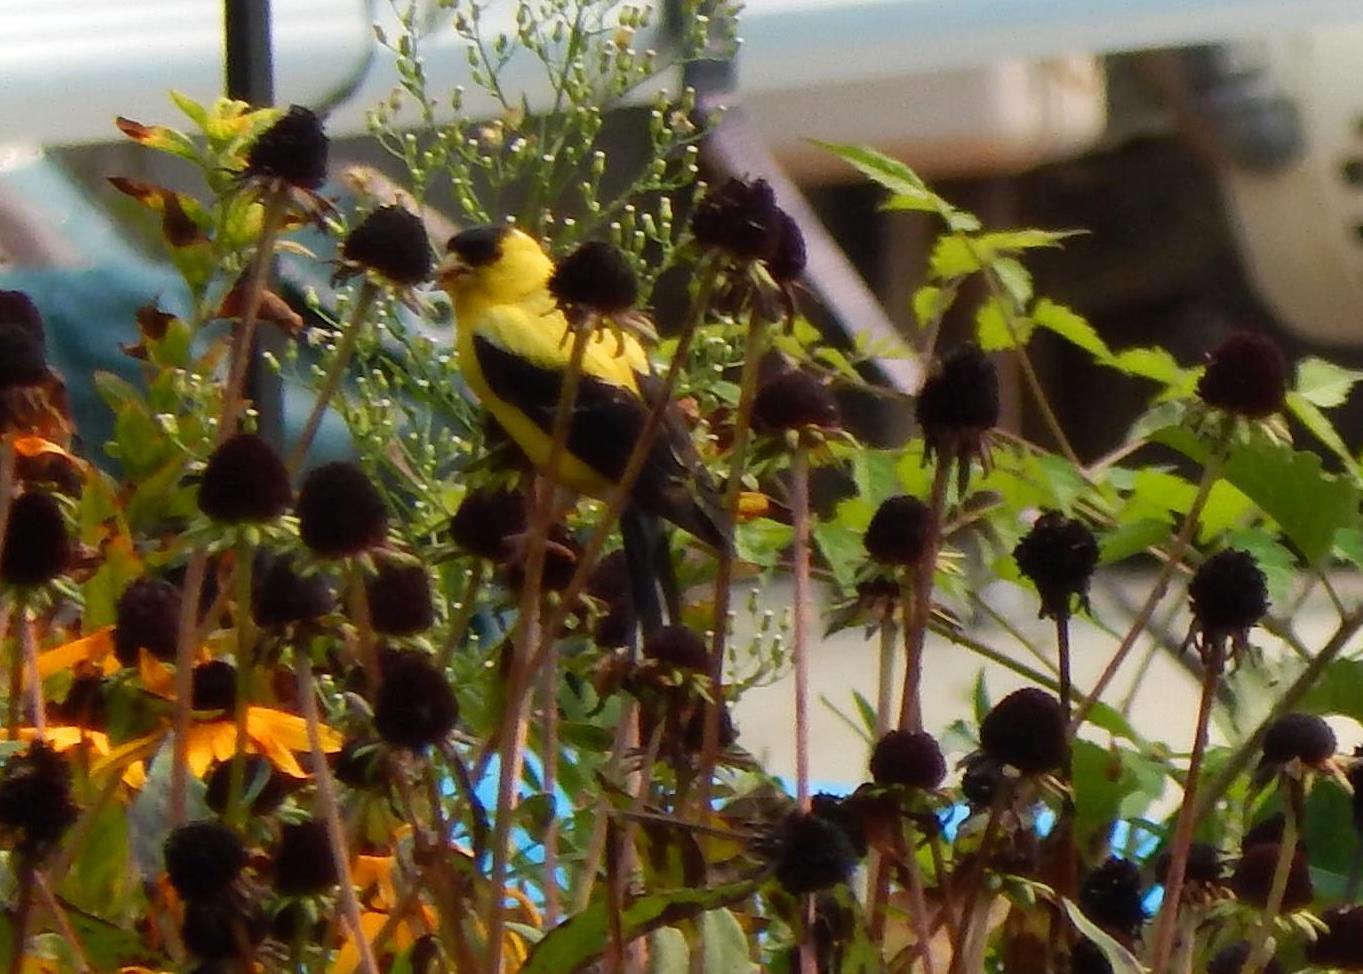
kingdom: Animalia
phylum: Chordata
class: Aves
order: Passeriformes
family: Fringillidae
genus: Spinus
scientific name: Spinus tristis
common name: American goldfinch
